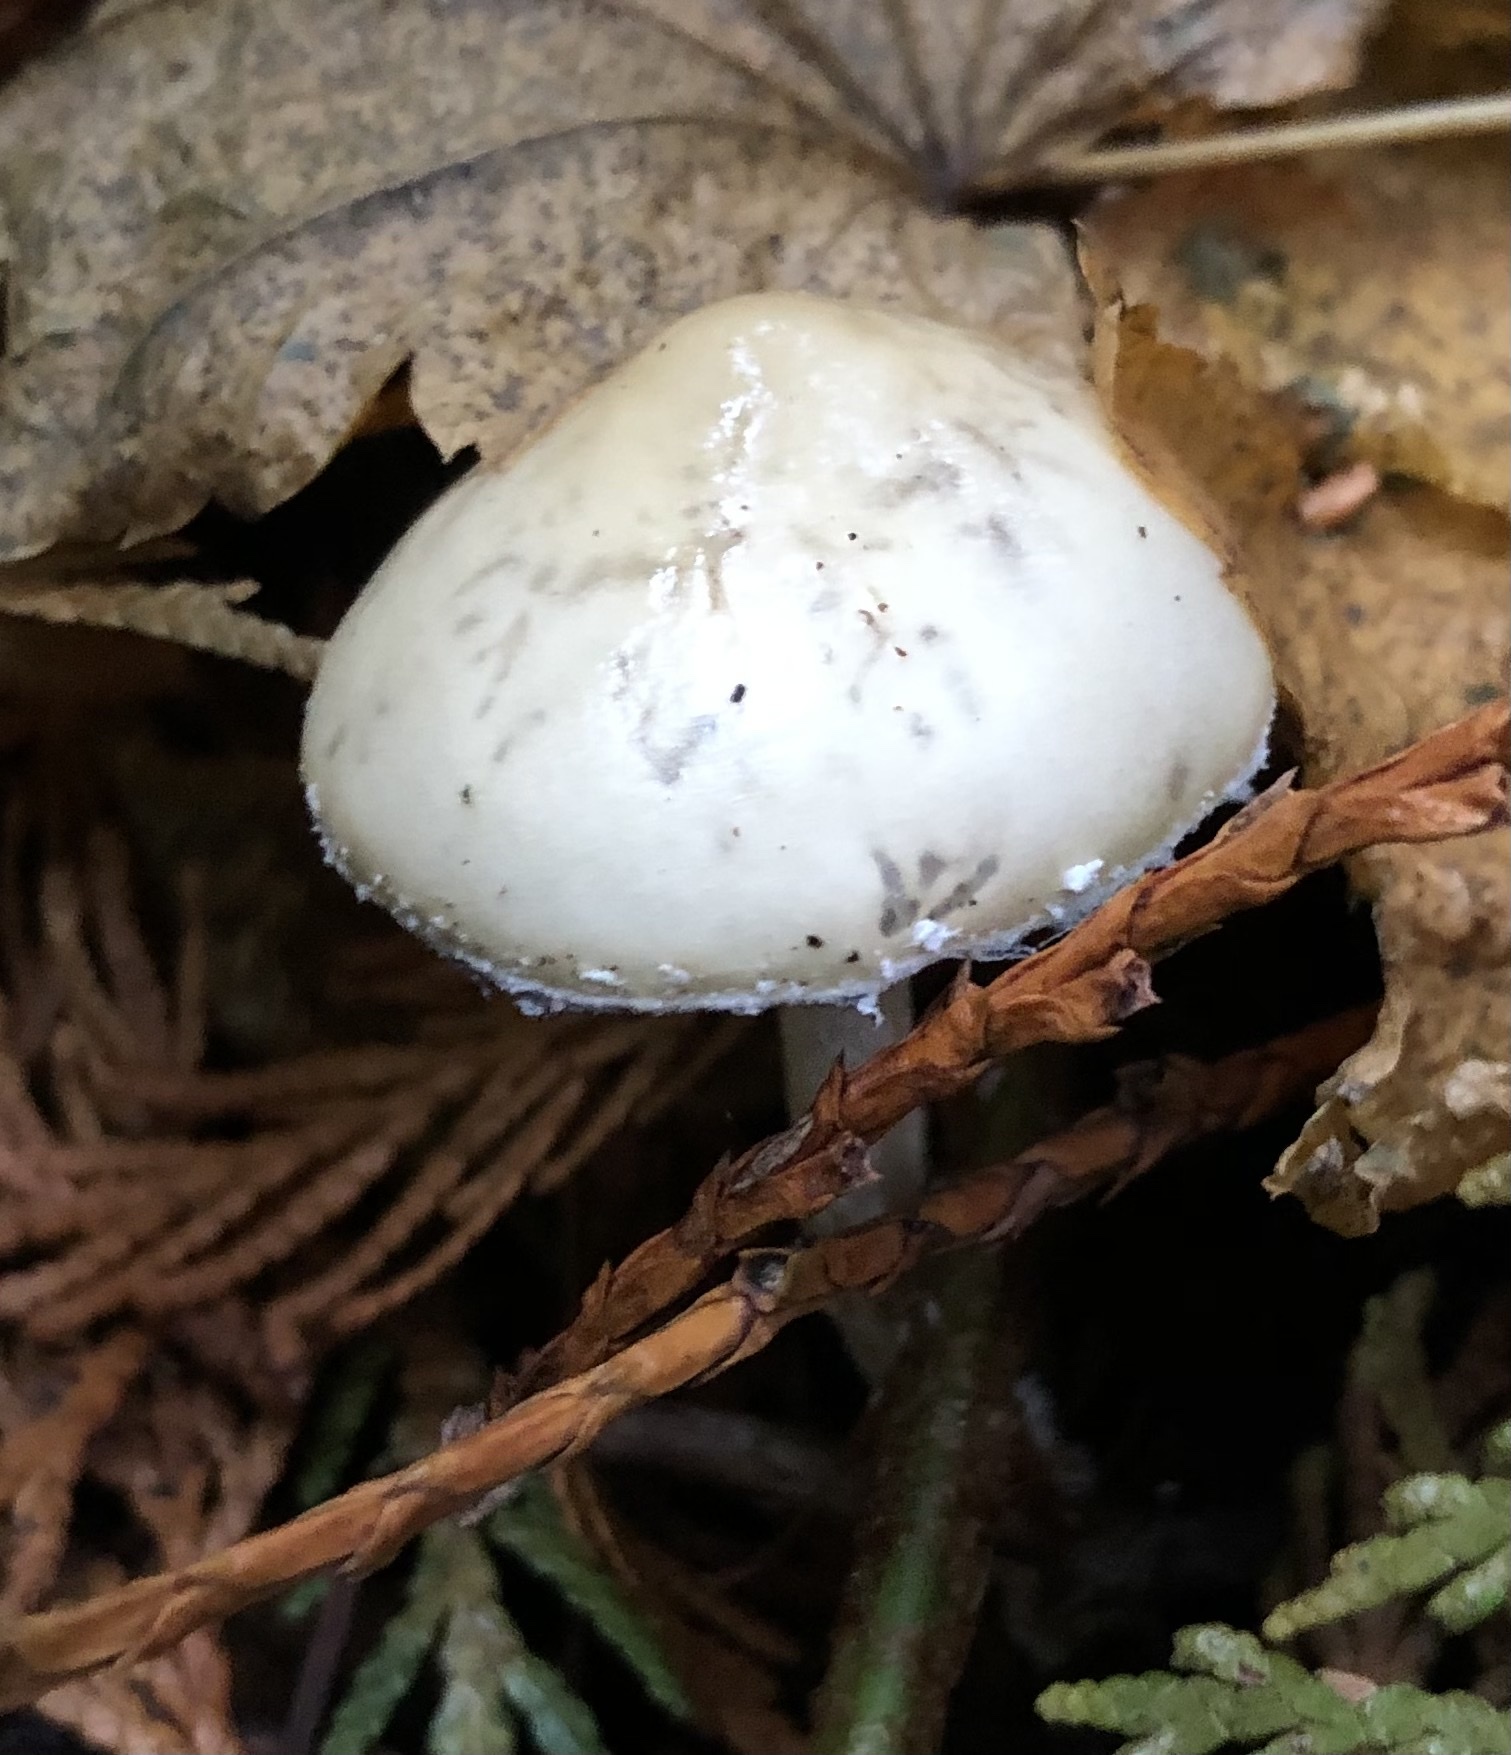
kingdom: Fungi
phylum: Basidiomycota
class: Agaricomycetes
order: Agaricales
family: Strophariaceae
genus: Stropharia
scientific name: Stropharia ambigua
